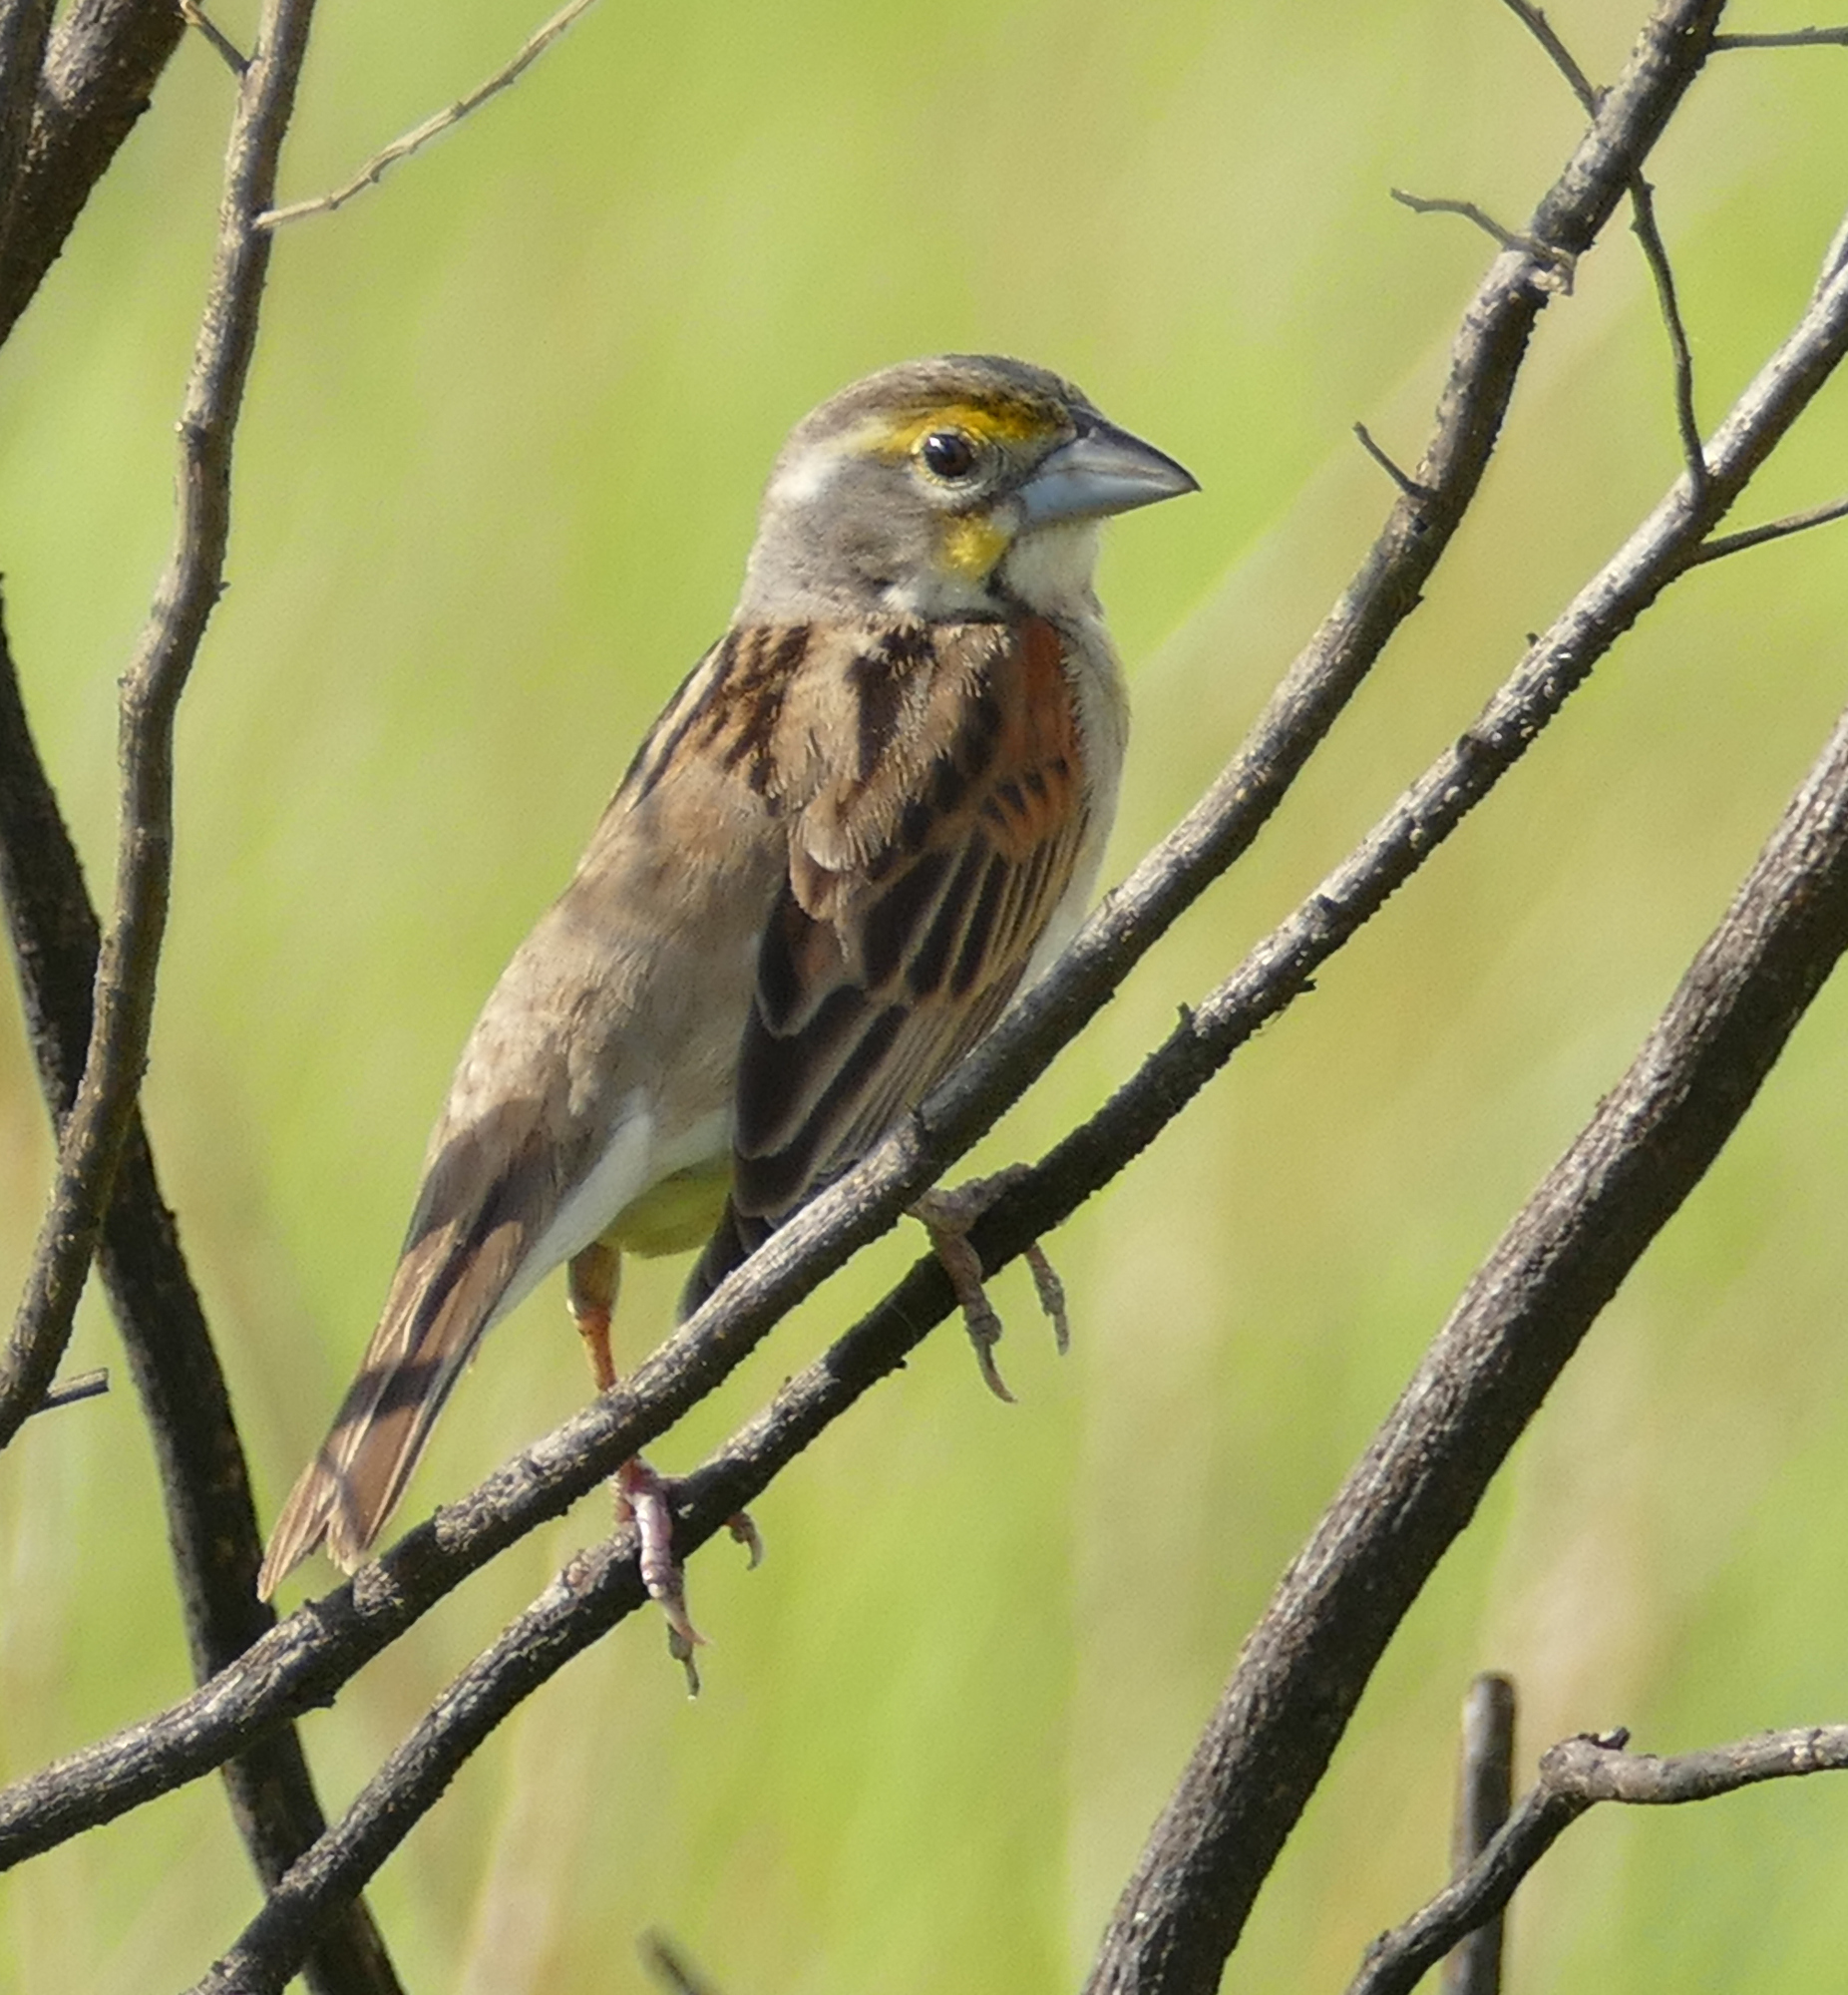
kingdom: Animalia
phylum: Chordata
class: Aves
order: Passeriformes
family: Cardinalidae
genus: Spiza
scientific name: Spiza americana
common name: Dickcissel
